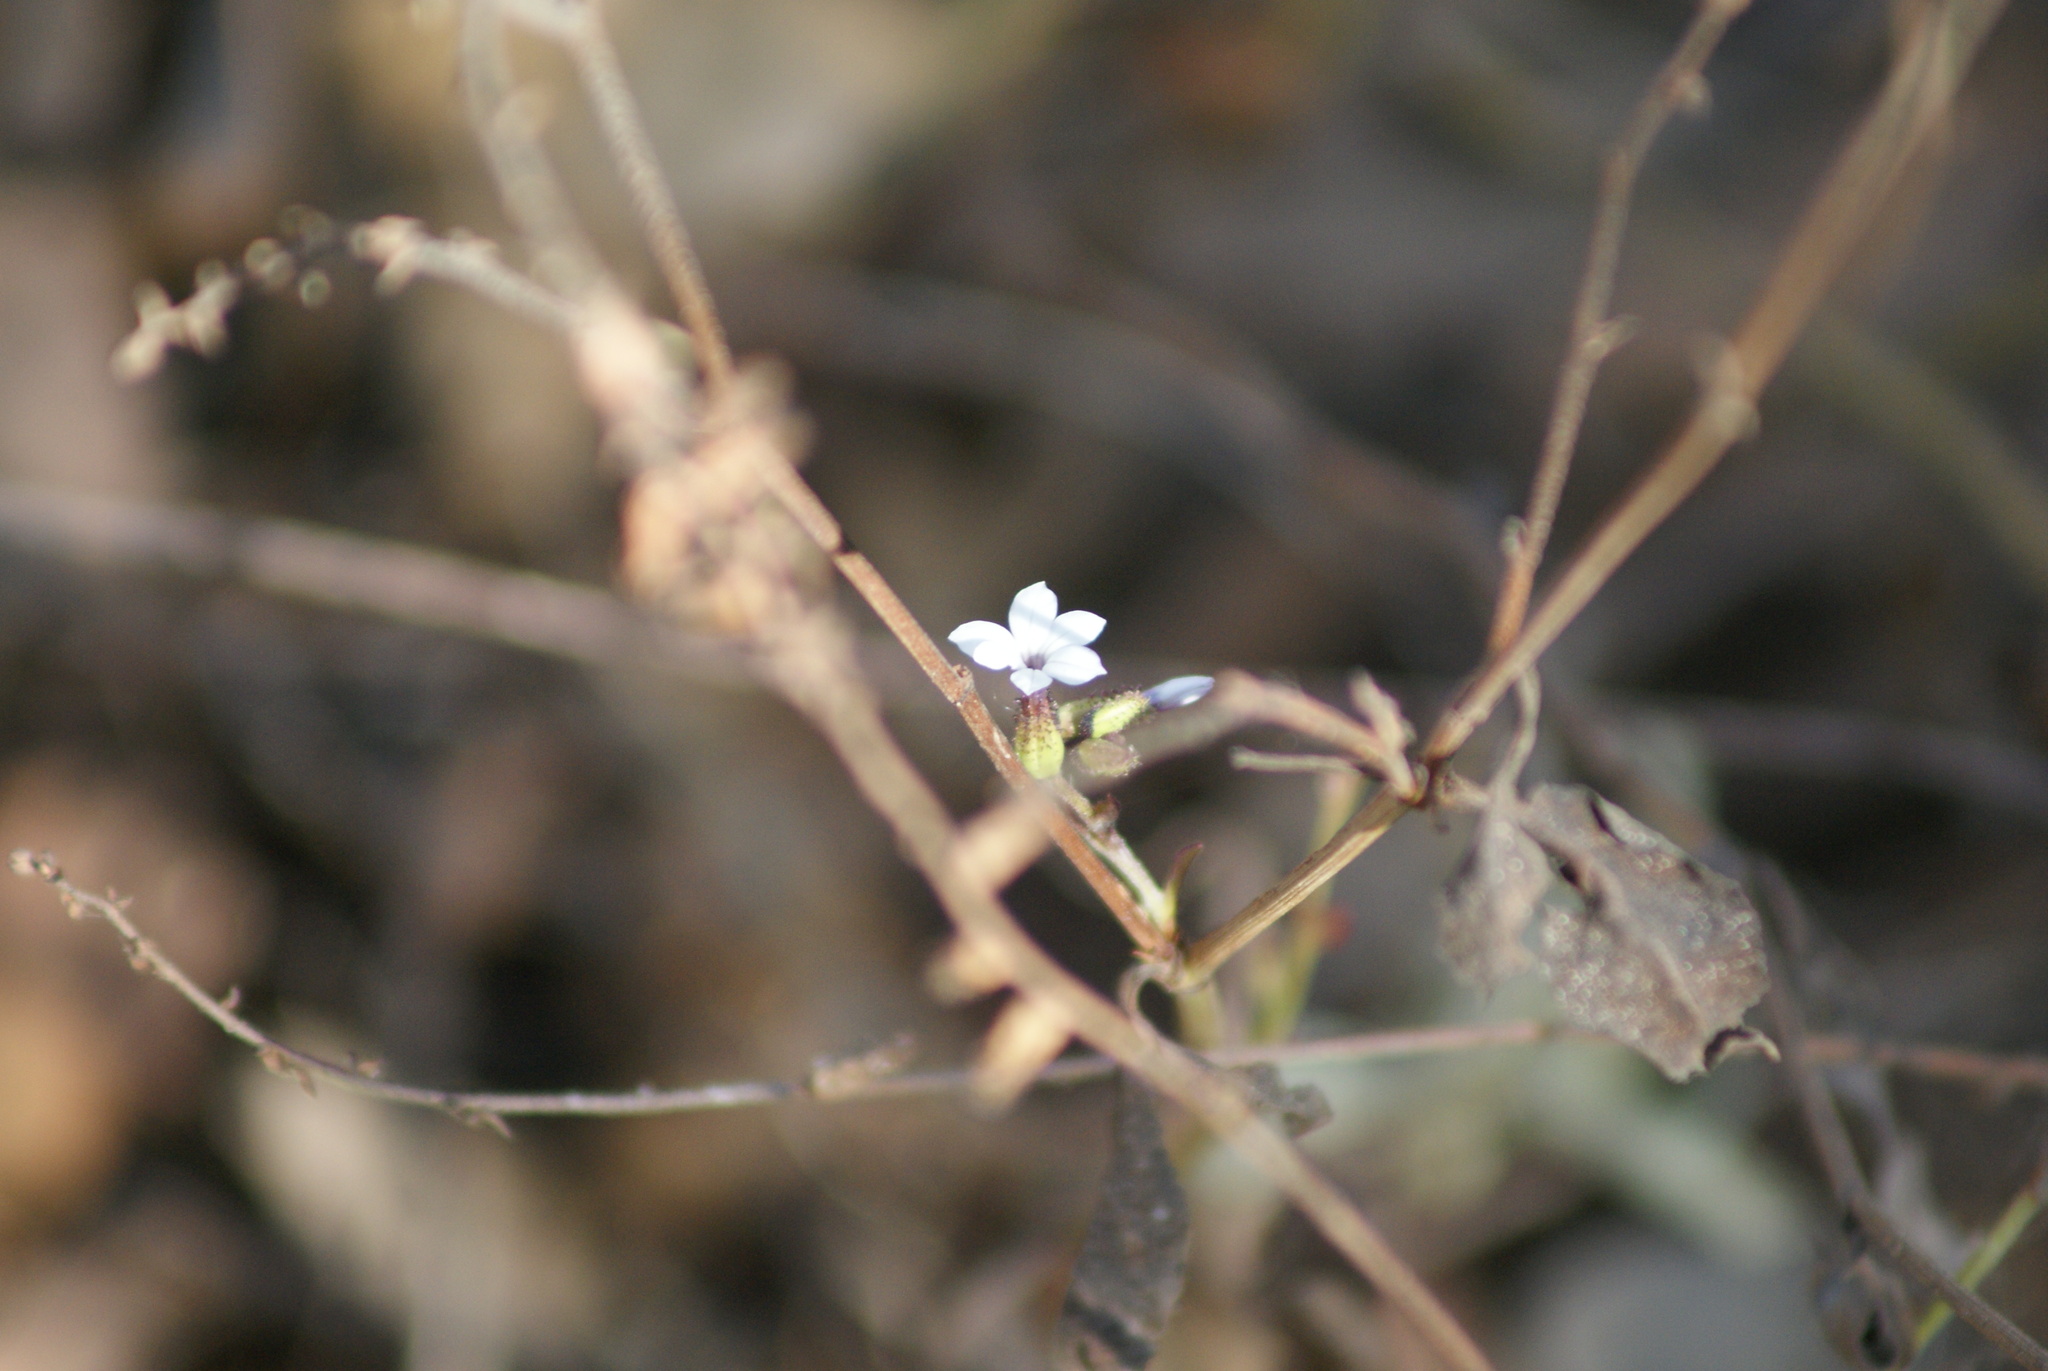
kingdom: Plantae
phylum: Tracheophyta
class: Magnoliopsida
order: Caryophyllales
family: Plumbaginaceae
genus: Plumbago
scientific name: Plumbago pulchella
